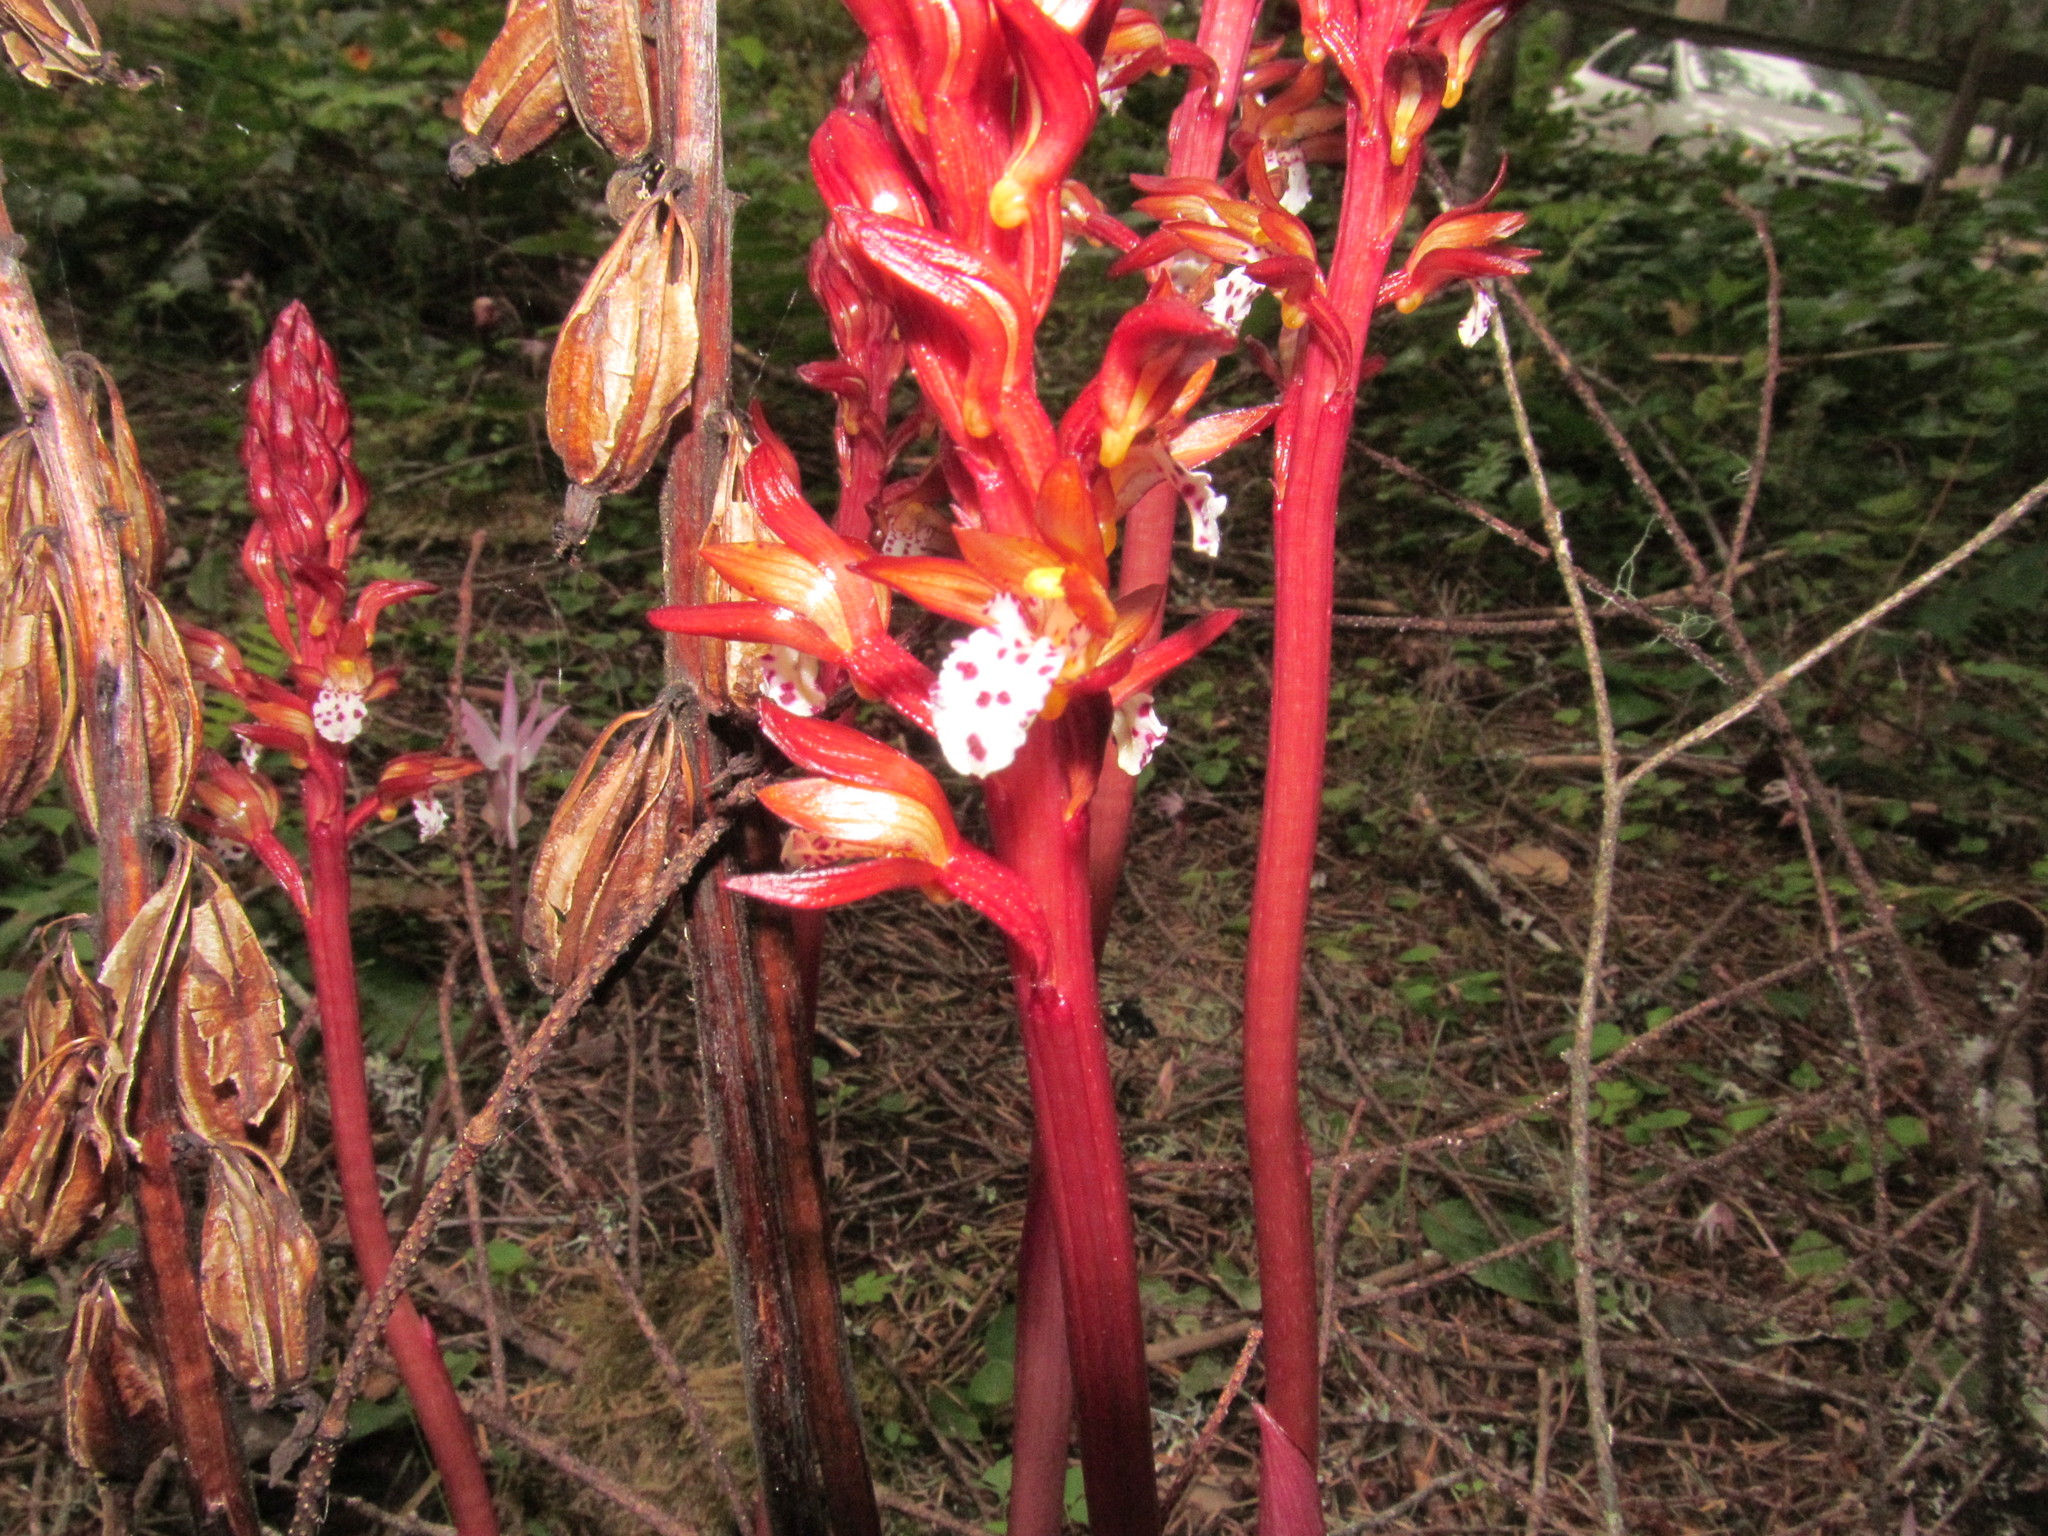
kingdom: Plantae
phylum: Tracheophyta
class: Liliopsida
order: Asparagales
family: Orchidaceae
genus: Corallorhiza
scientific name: Corallorhiza maculata
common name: Spotted coralroot
